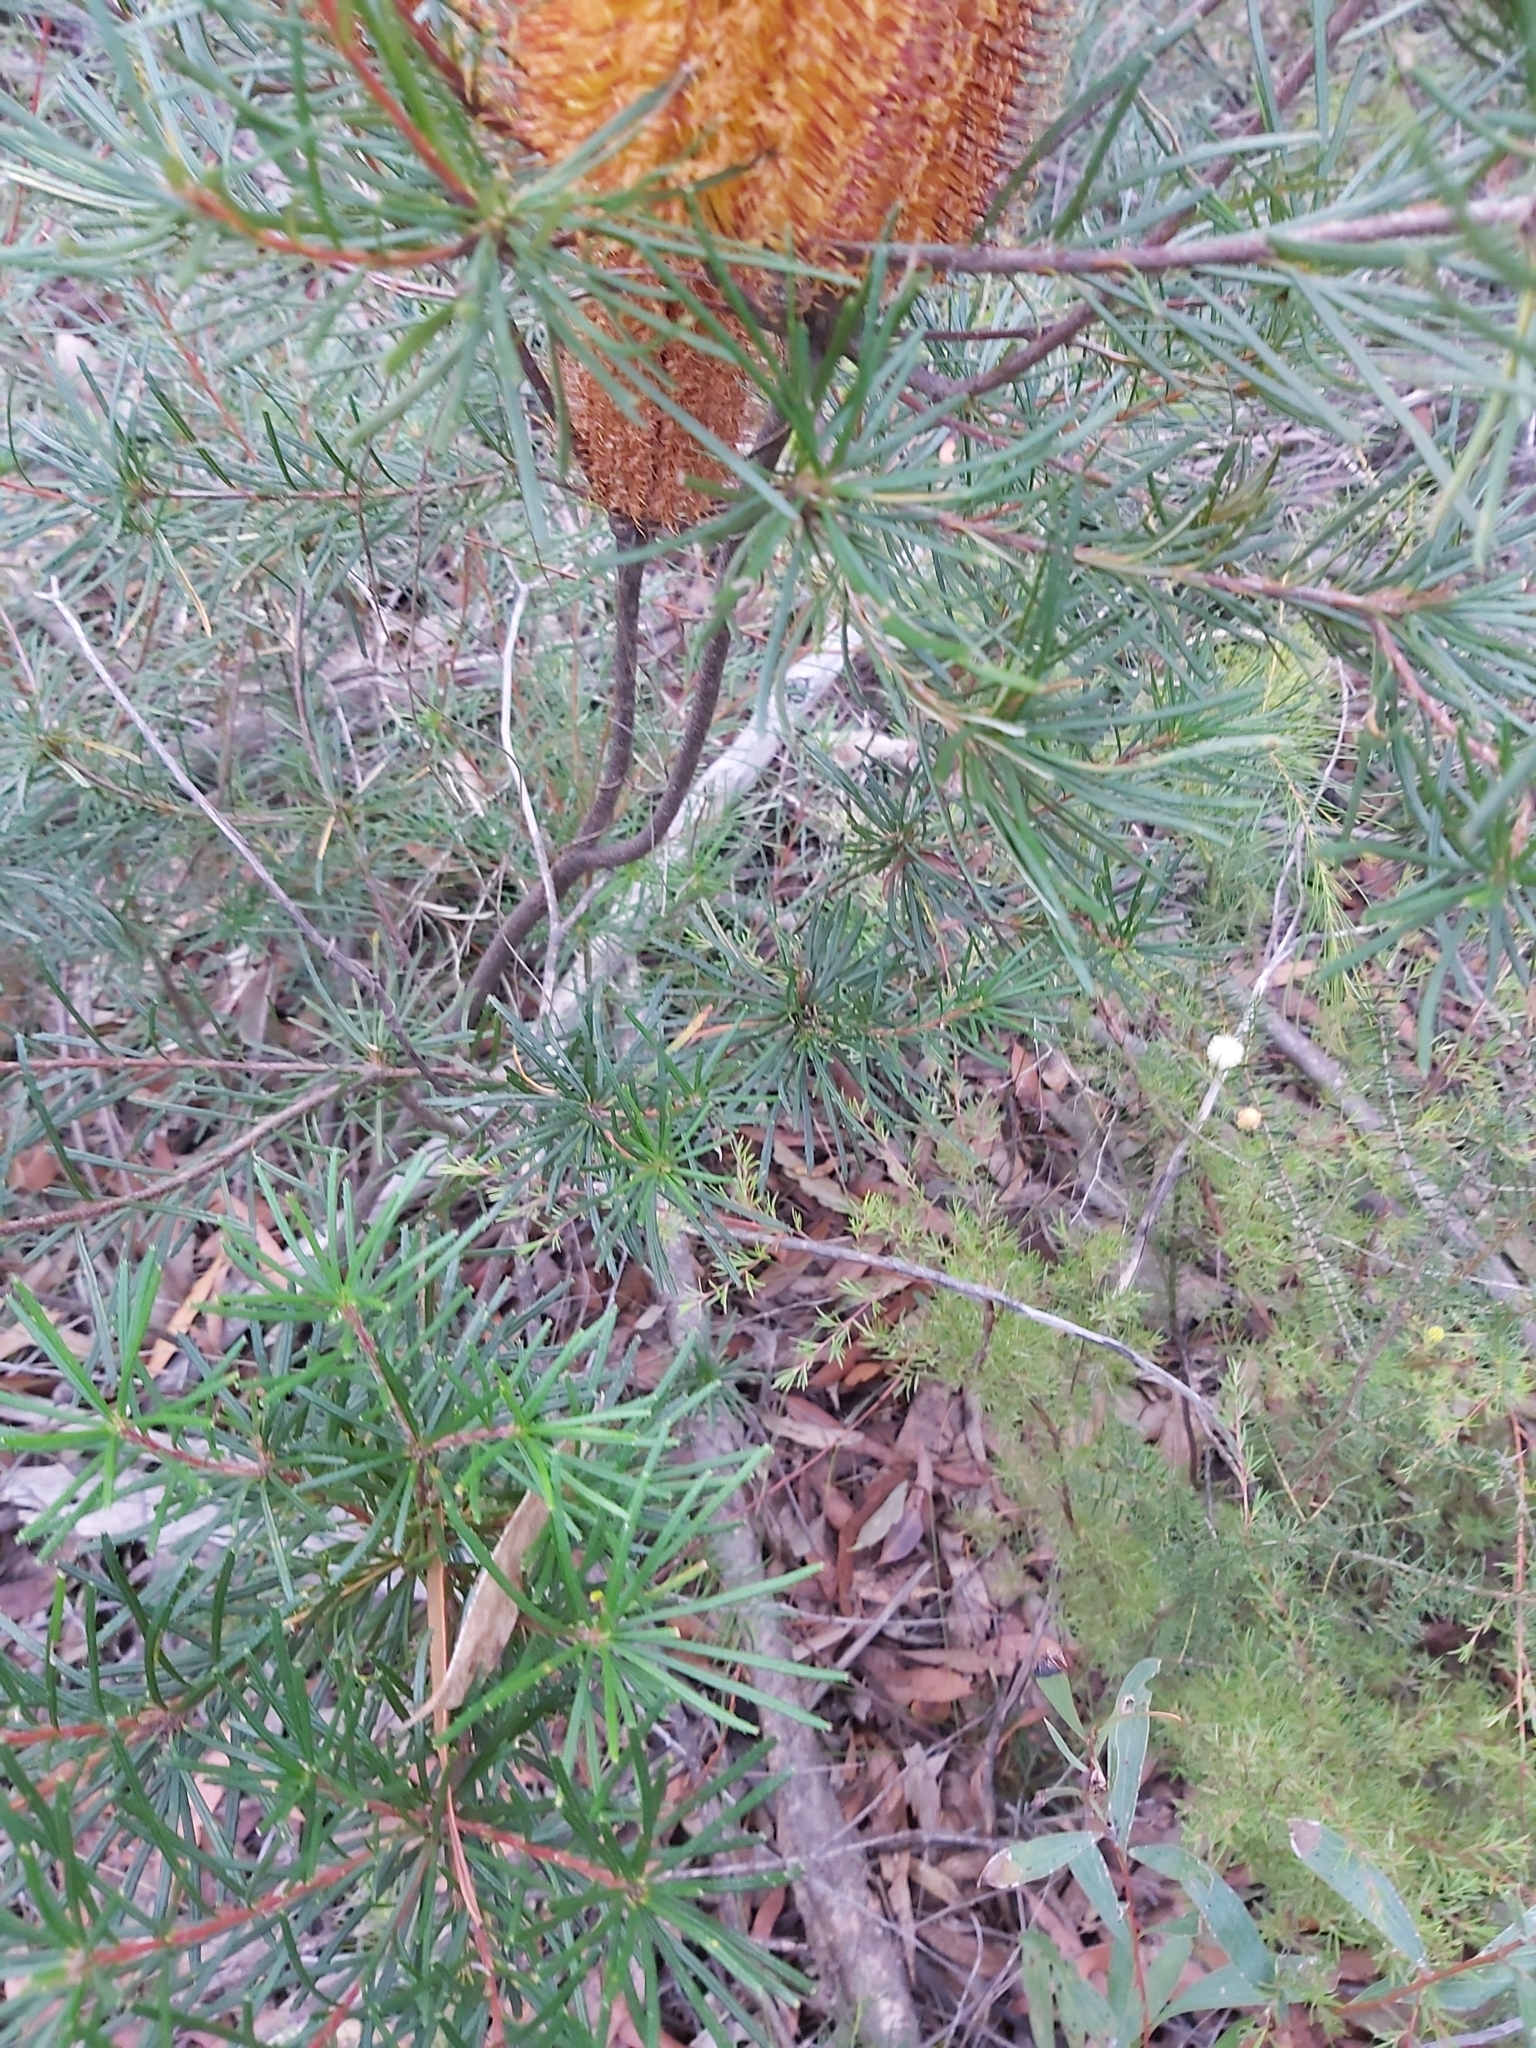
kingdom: Plantae
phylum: Tracheophyta
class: Magnoliopsida
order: Proteales
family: Proteaceae
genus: Banksia
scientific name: Banksia spinulosa
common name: Hairpin banksia
